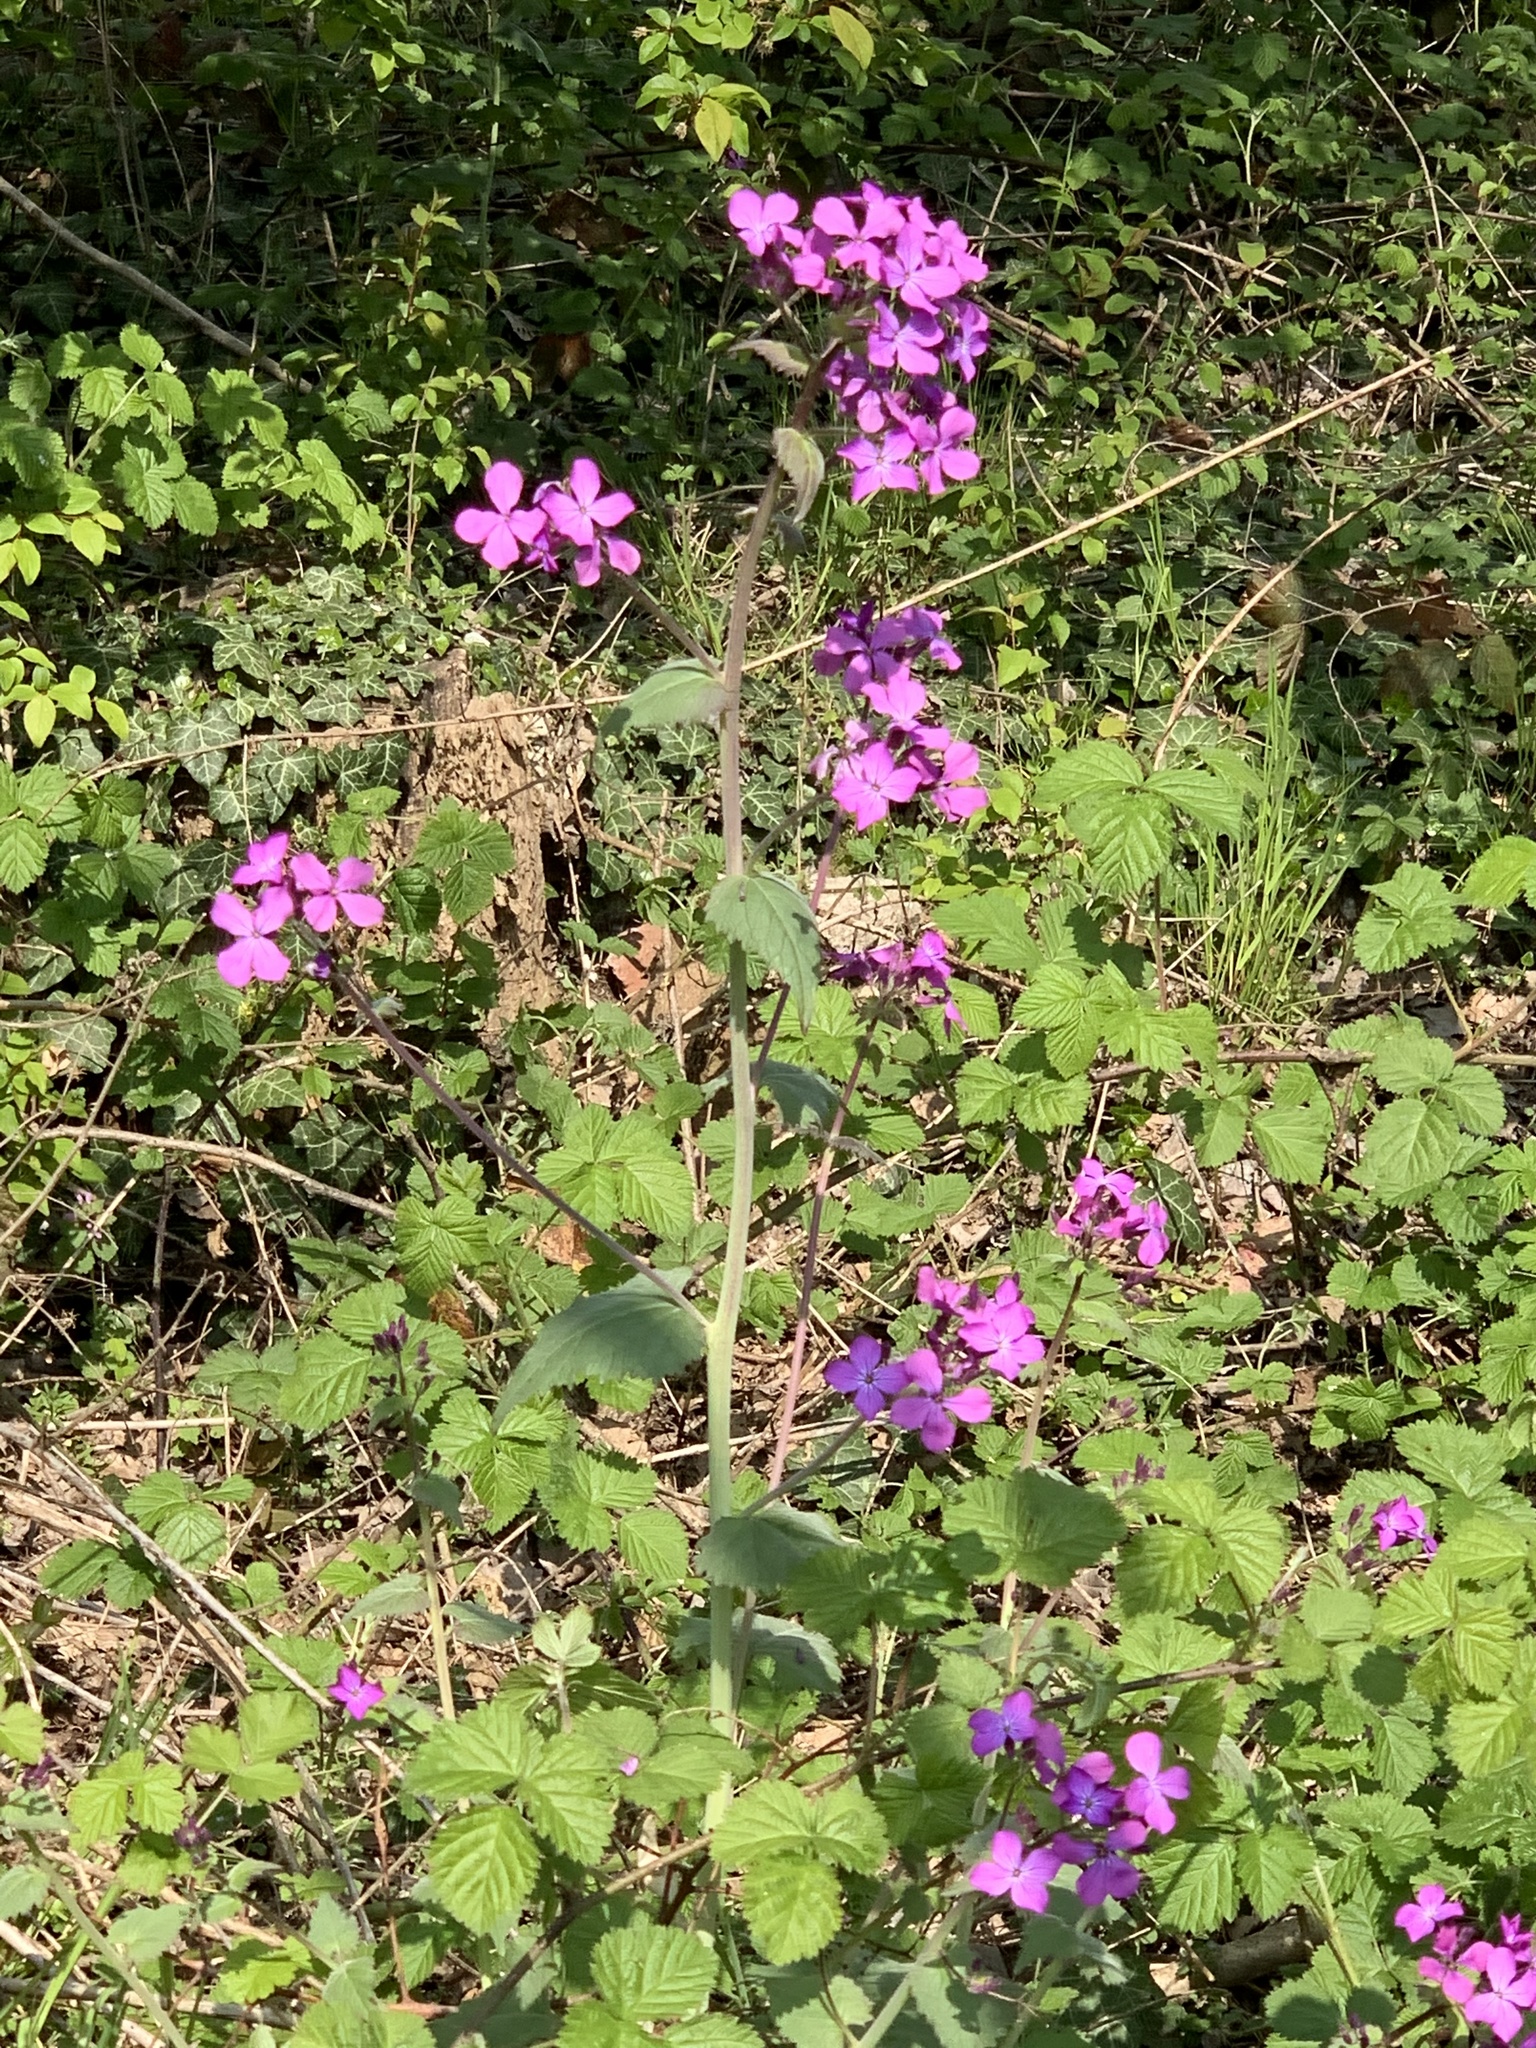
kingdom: Plantae
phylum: Tracheophyta
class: Magnoliopsida
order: Brassicales
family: Brassicaceae
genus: Lunaria
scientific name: Lunaria annua
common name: Honesty
